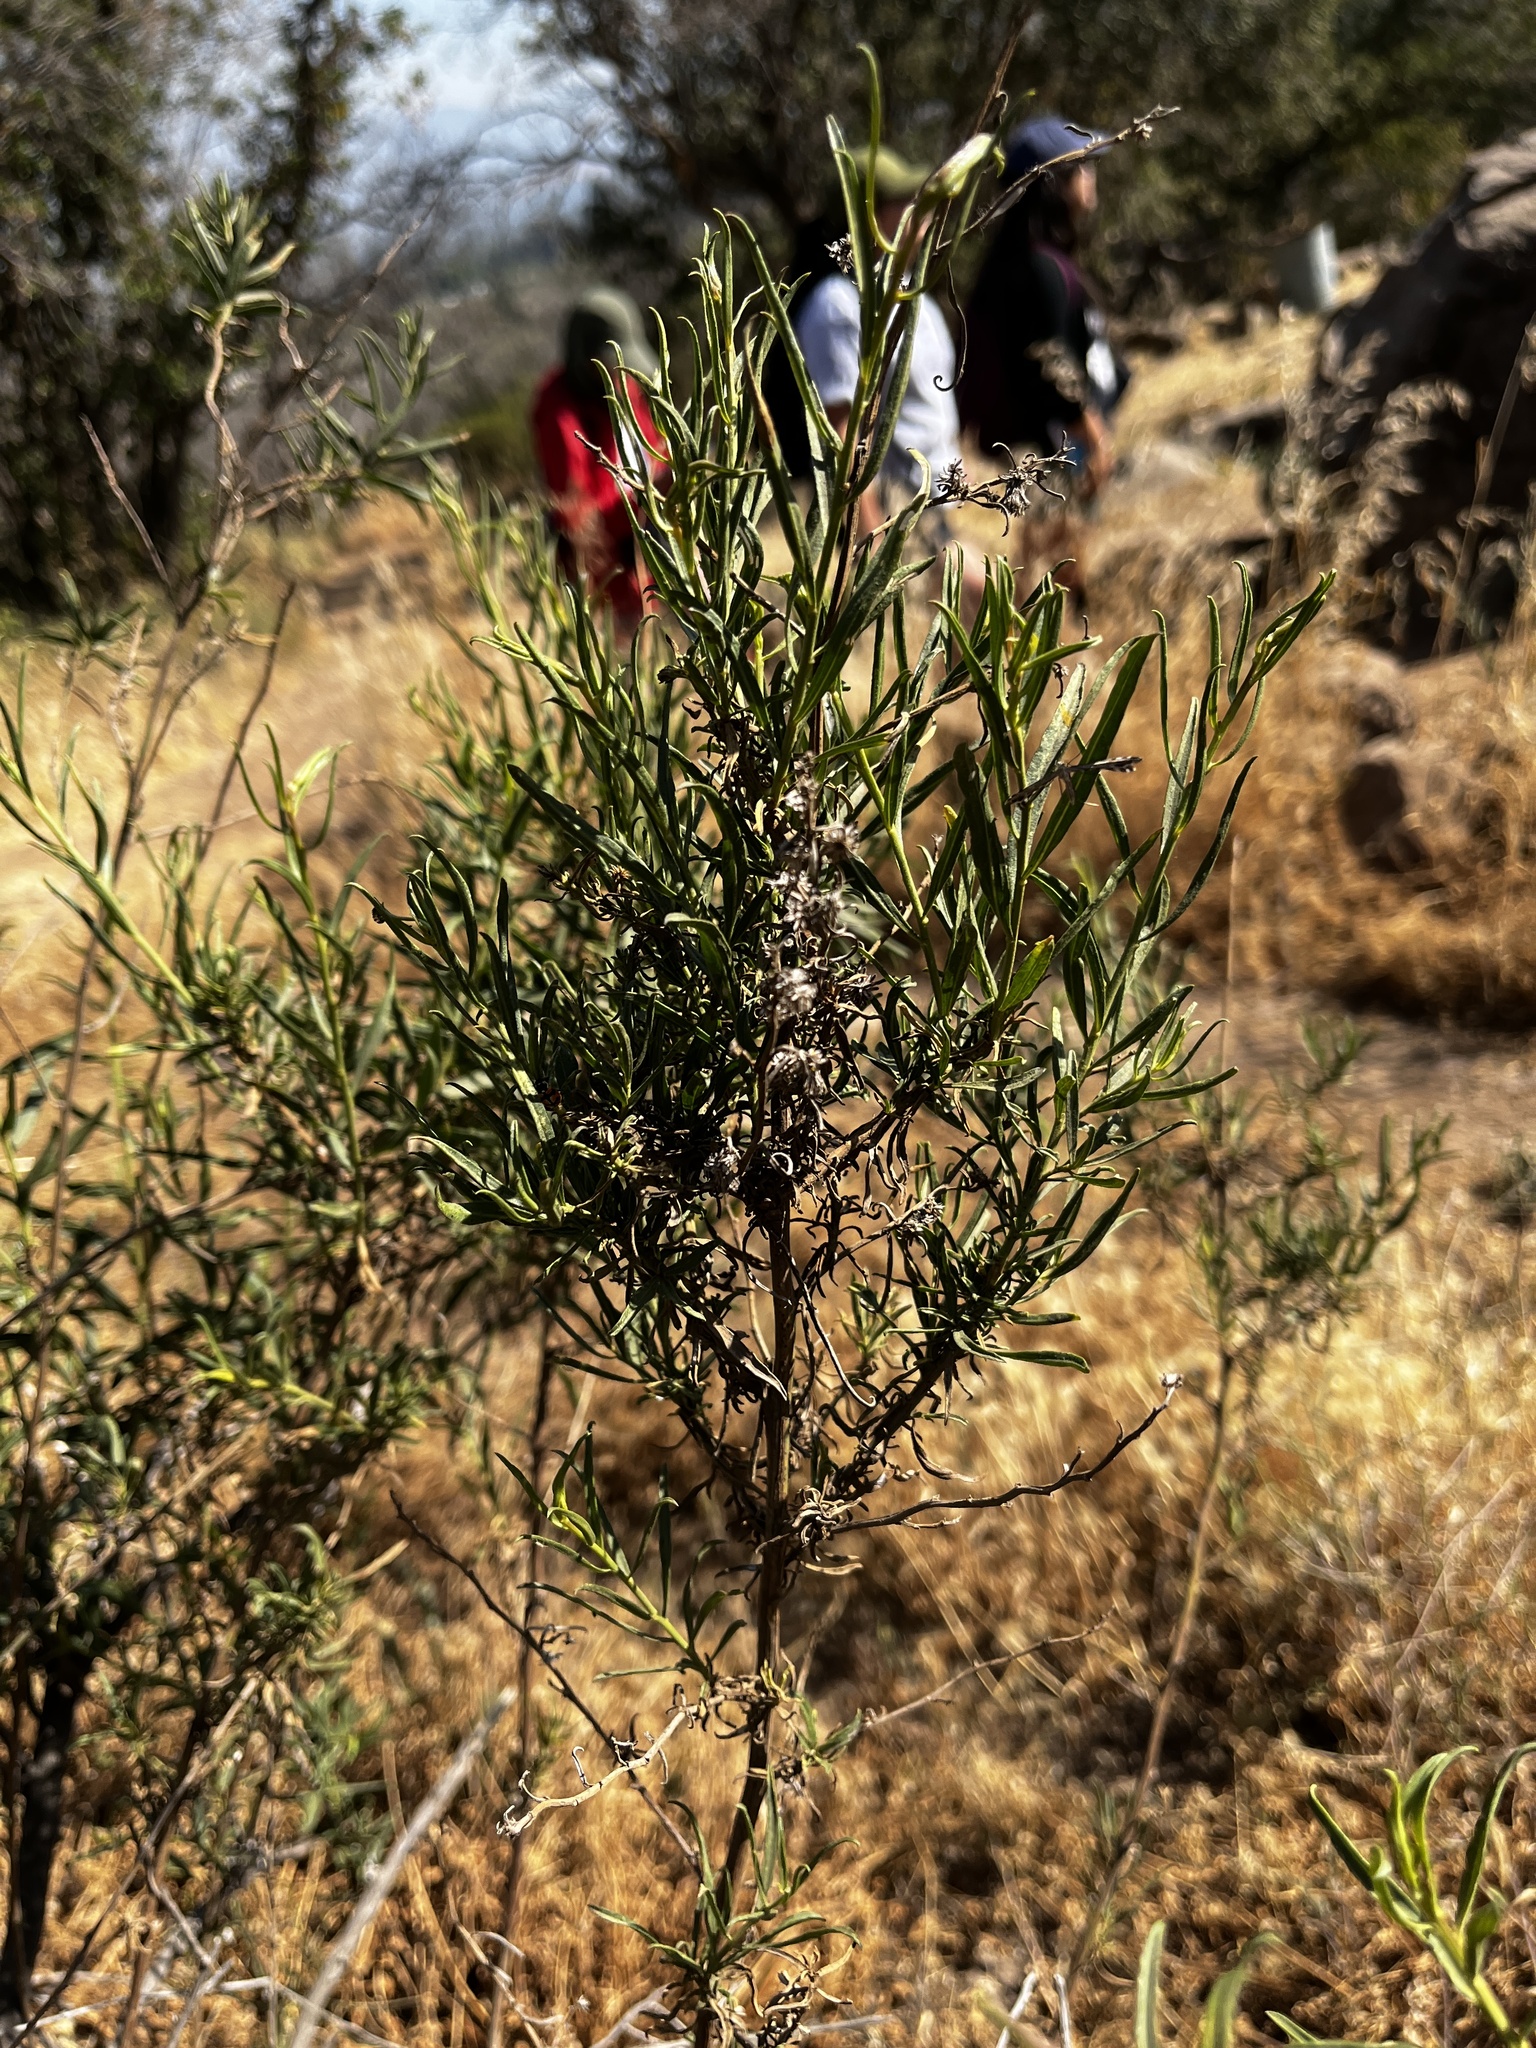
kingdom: Plantae
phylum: Tracheophyta
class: Magnoliopsida
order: Asterales
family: Asteraceae
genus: Baccharis
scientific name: Baccharis paniculata
